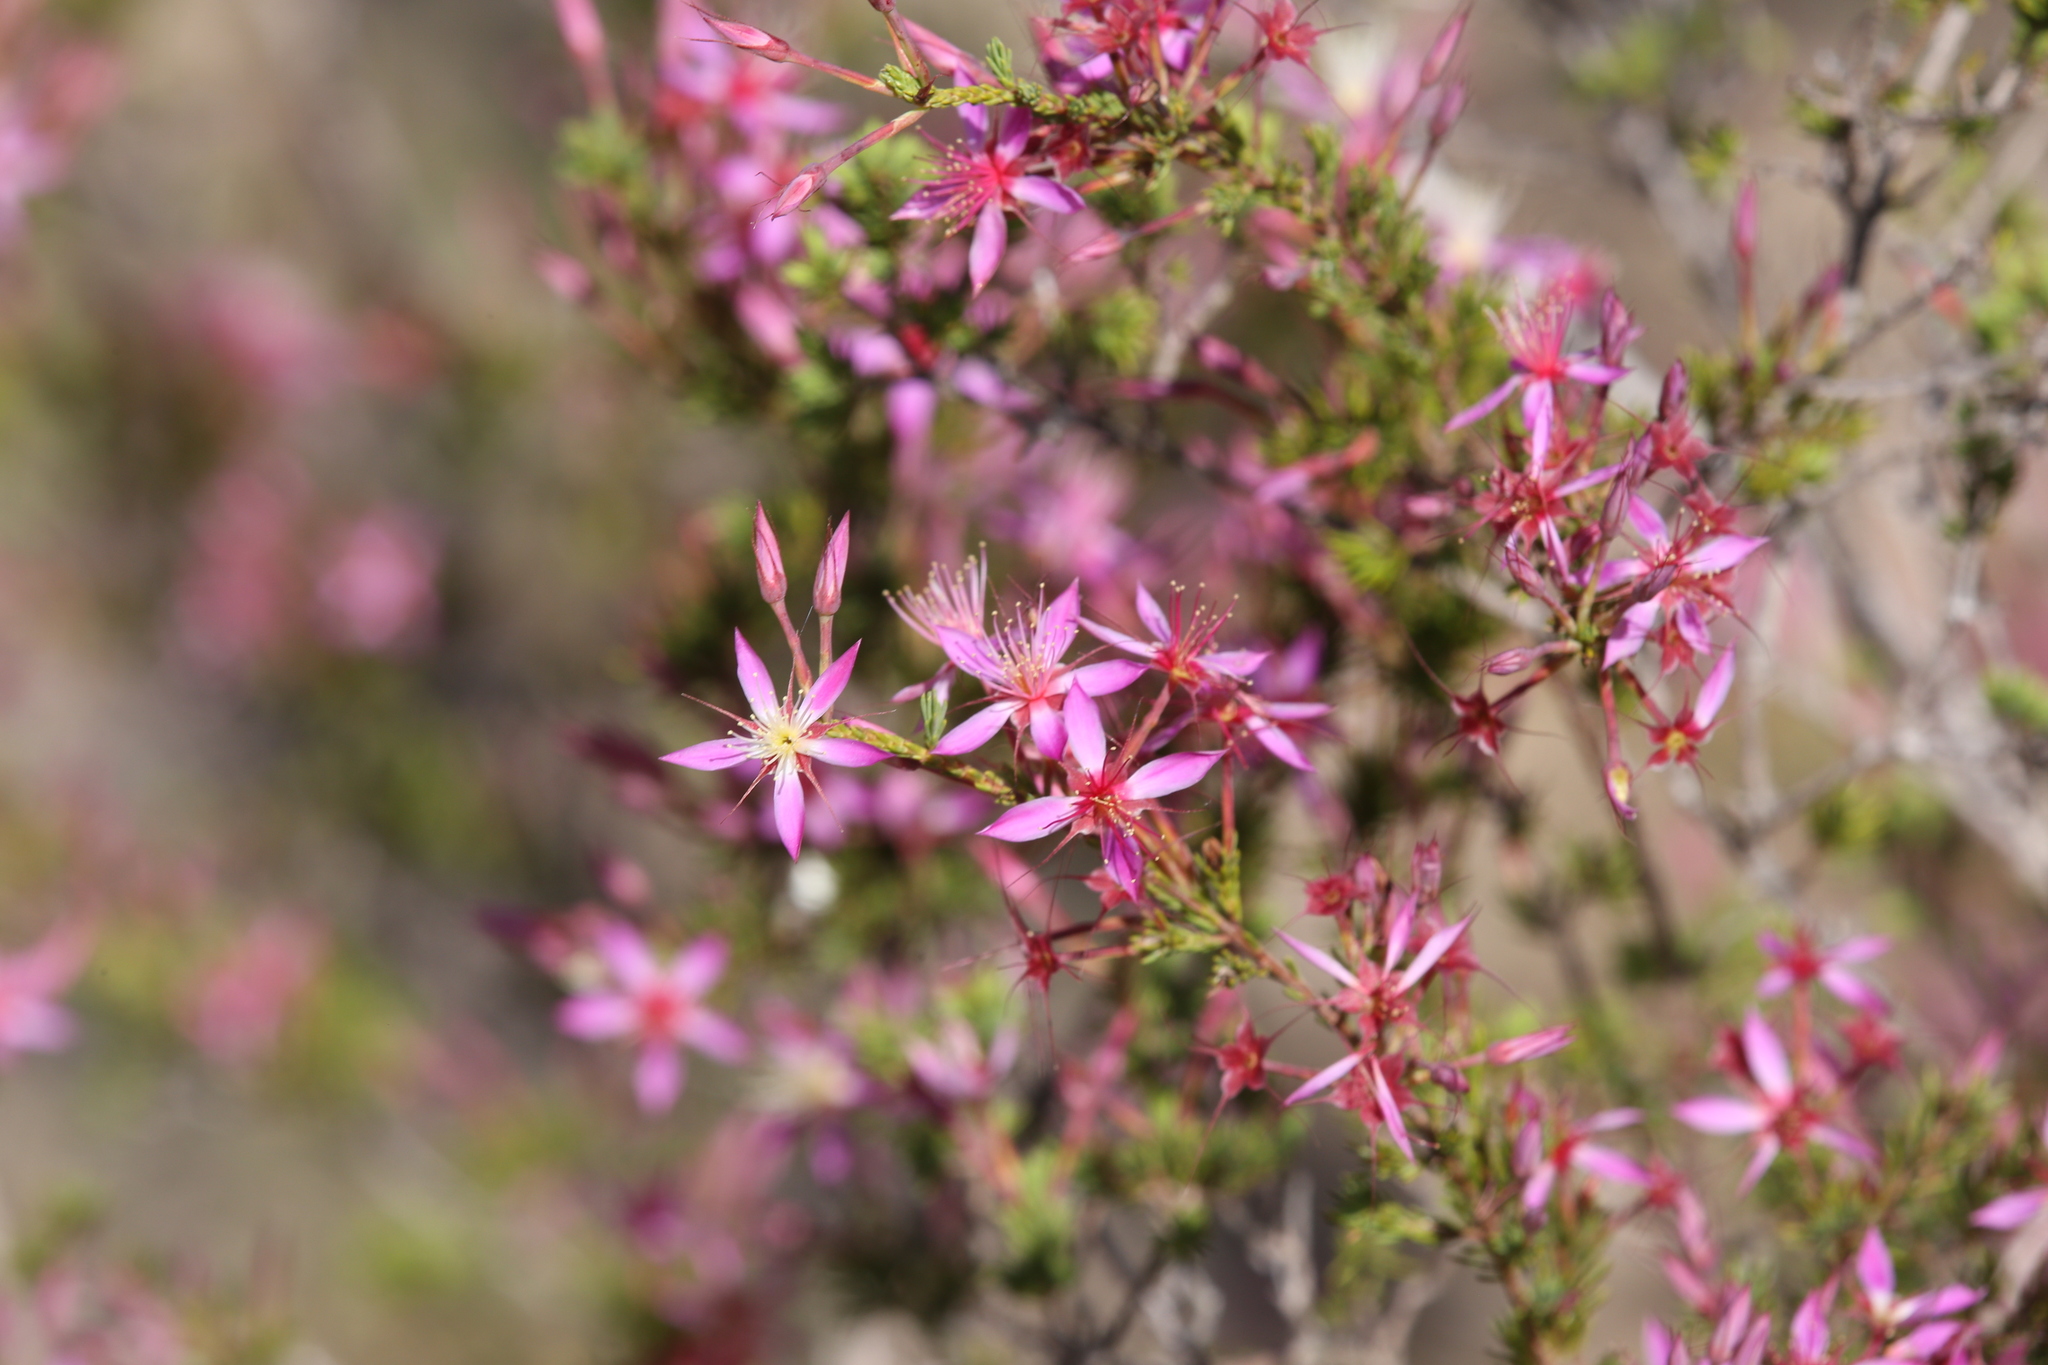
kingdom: Plantae
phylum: Tracheophyta
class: Magnoliopsida
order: Myrtales
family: Myrtaceae
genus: Calytrix
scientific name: Calytrix leptophylla
